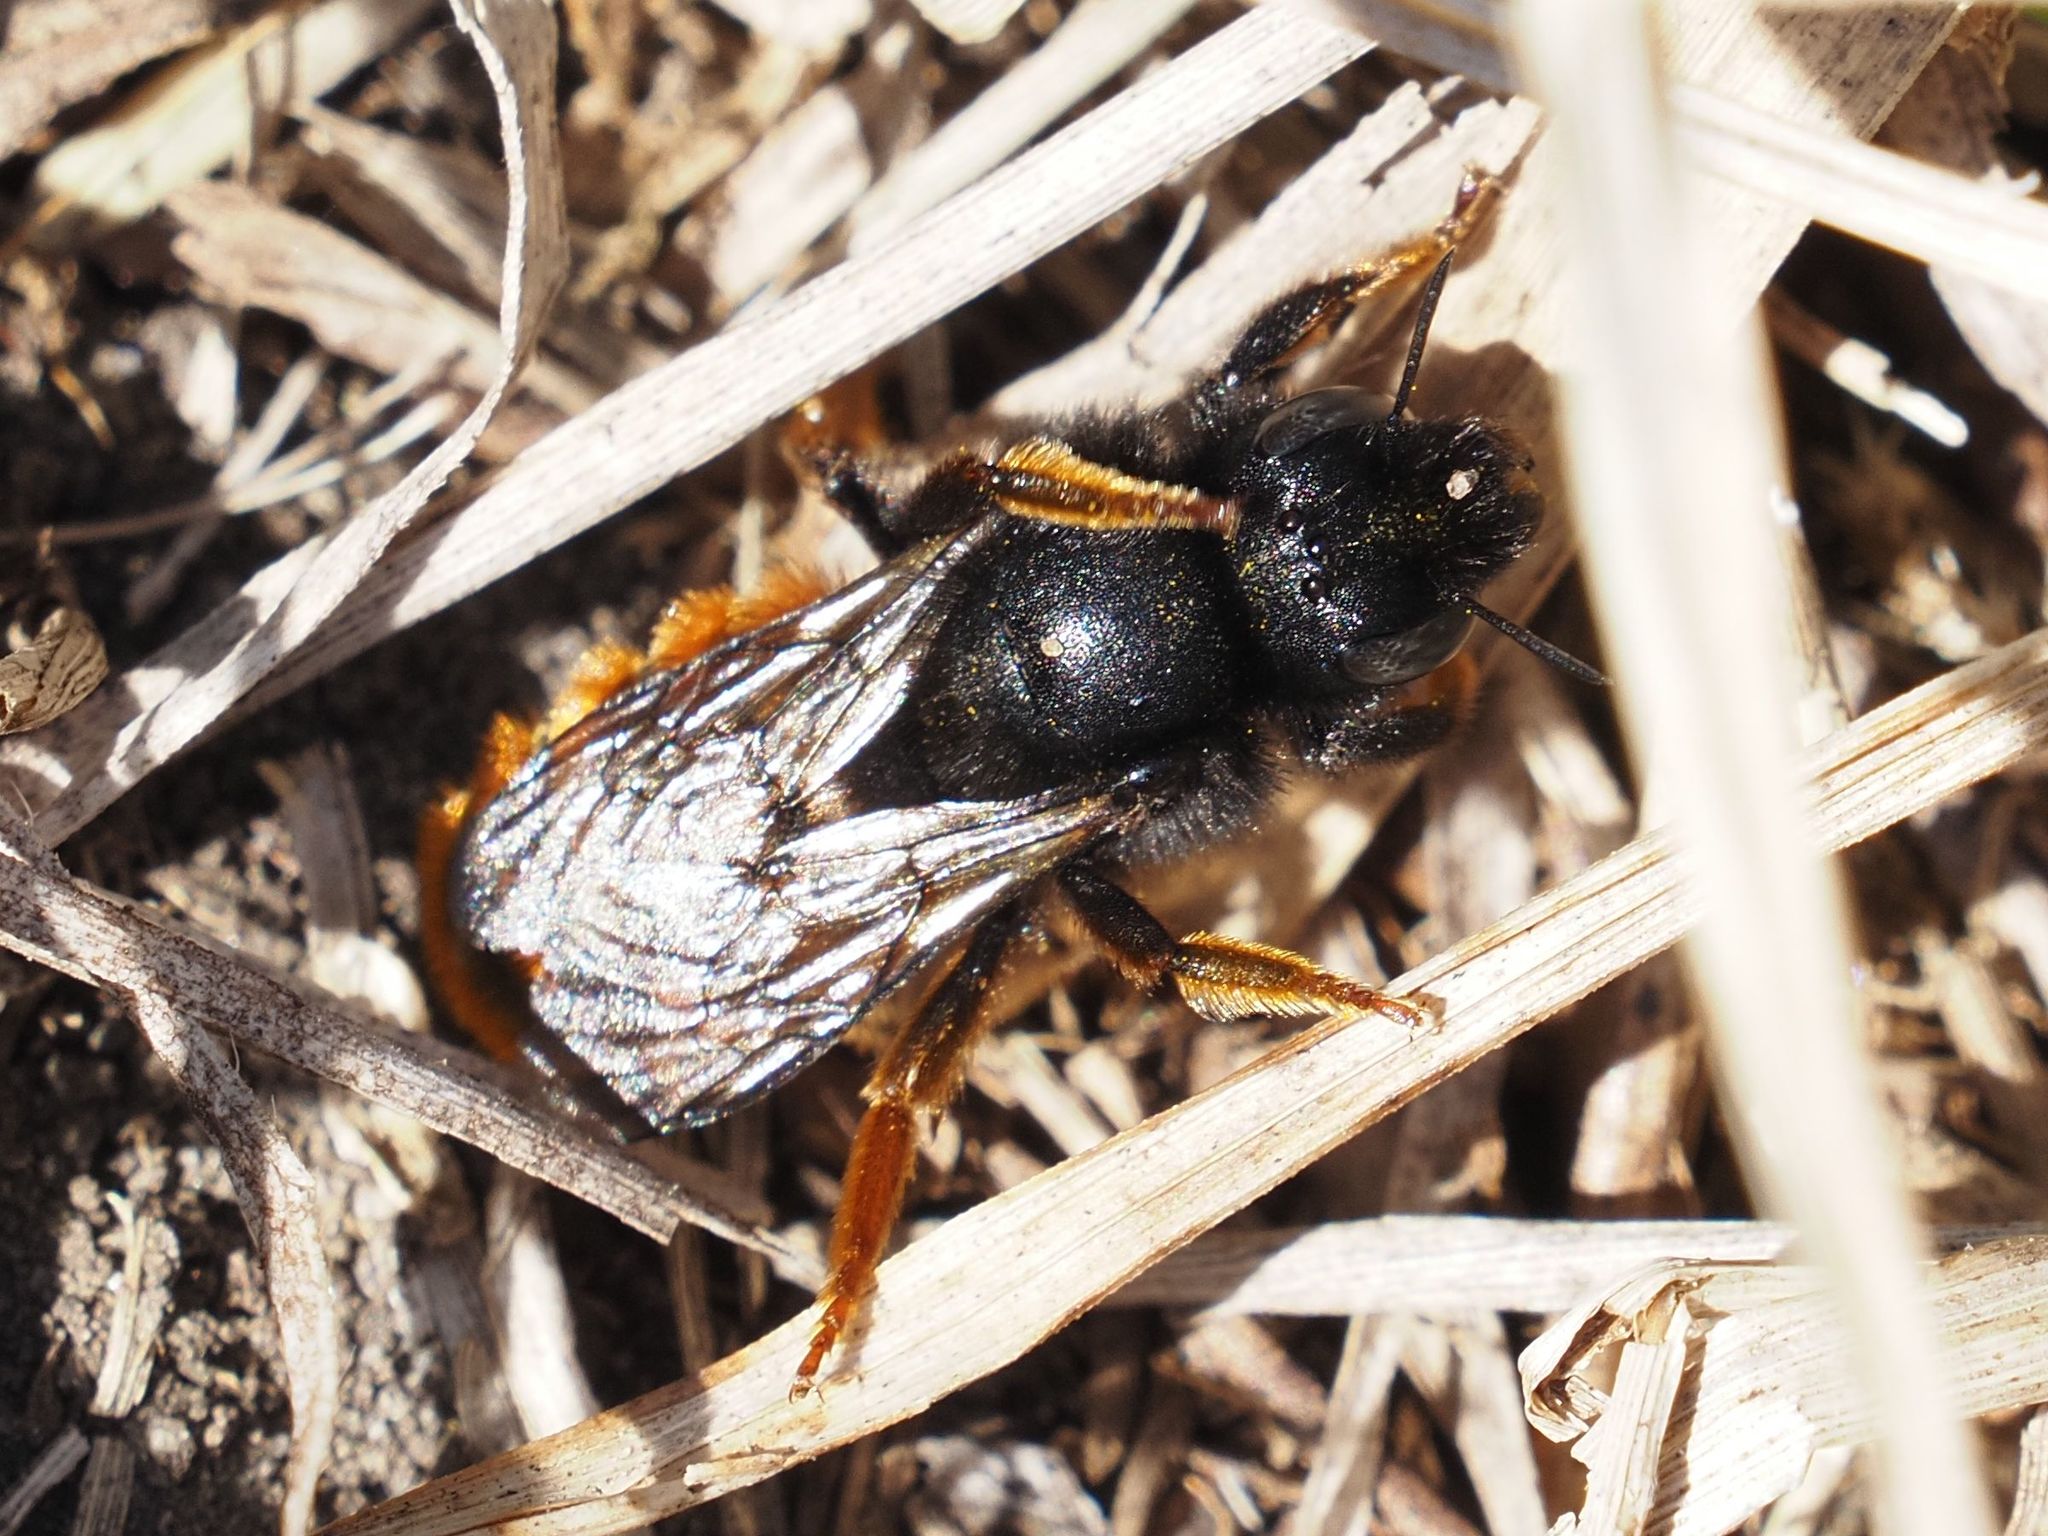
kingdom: Animalia
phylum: Arthropoda
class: Insecta
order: Hymenoptera
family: Megachilidae
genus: Osmia
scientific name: Osmia bicolor
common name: Red-tailed mason bee
